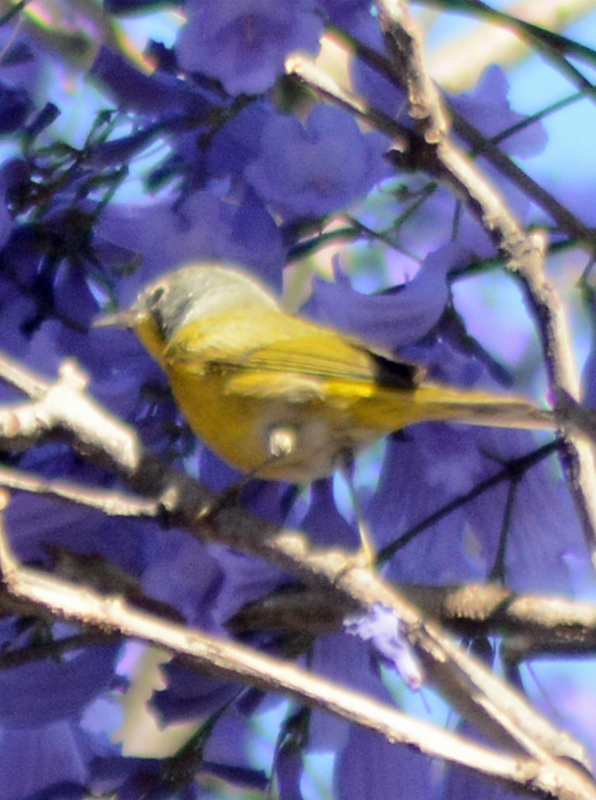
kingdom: Animalia
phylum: Chordata
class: Aves
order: Passeriformes
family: Parulidae
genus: Leiothlypis
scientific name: Leiothlypis ruficapilla
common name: Nashville warbler
